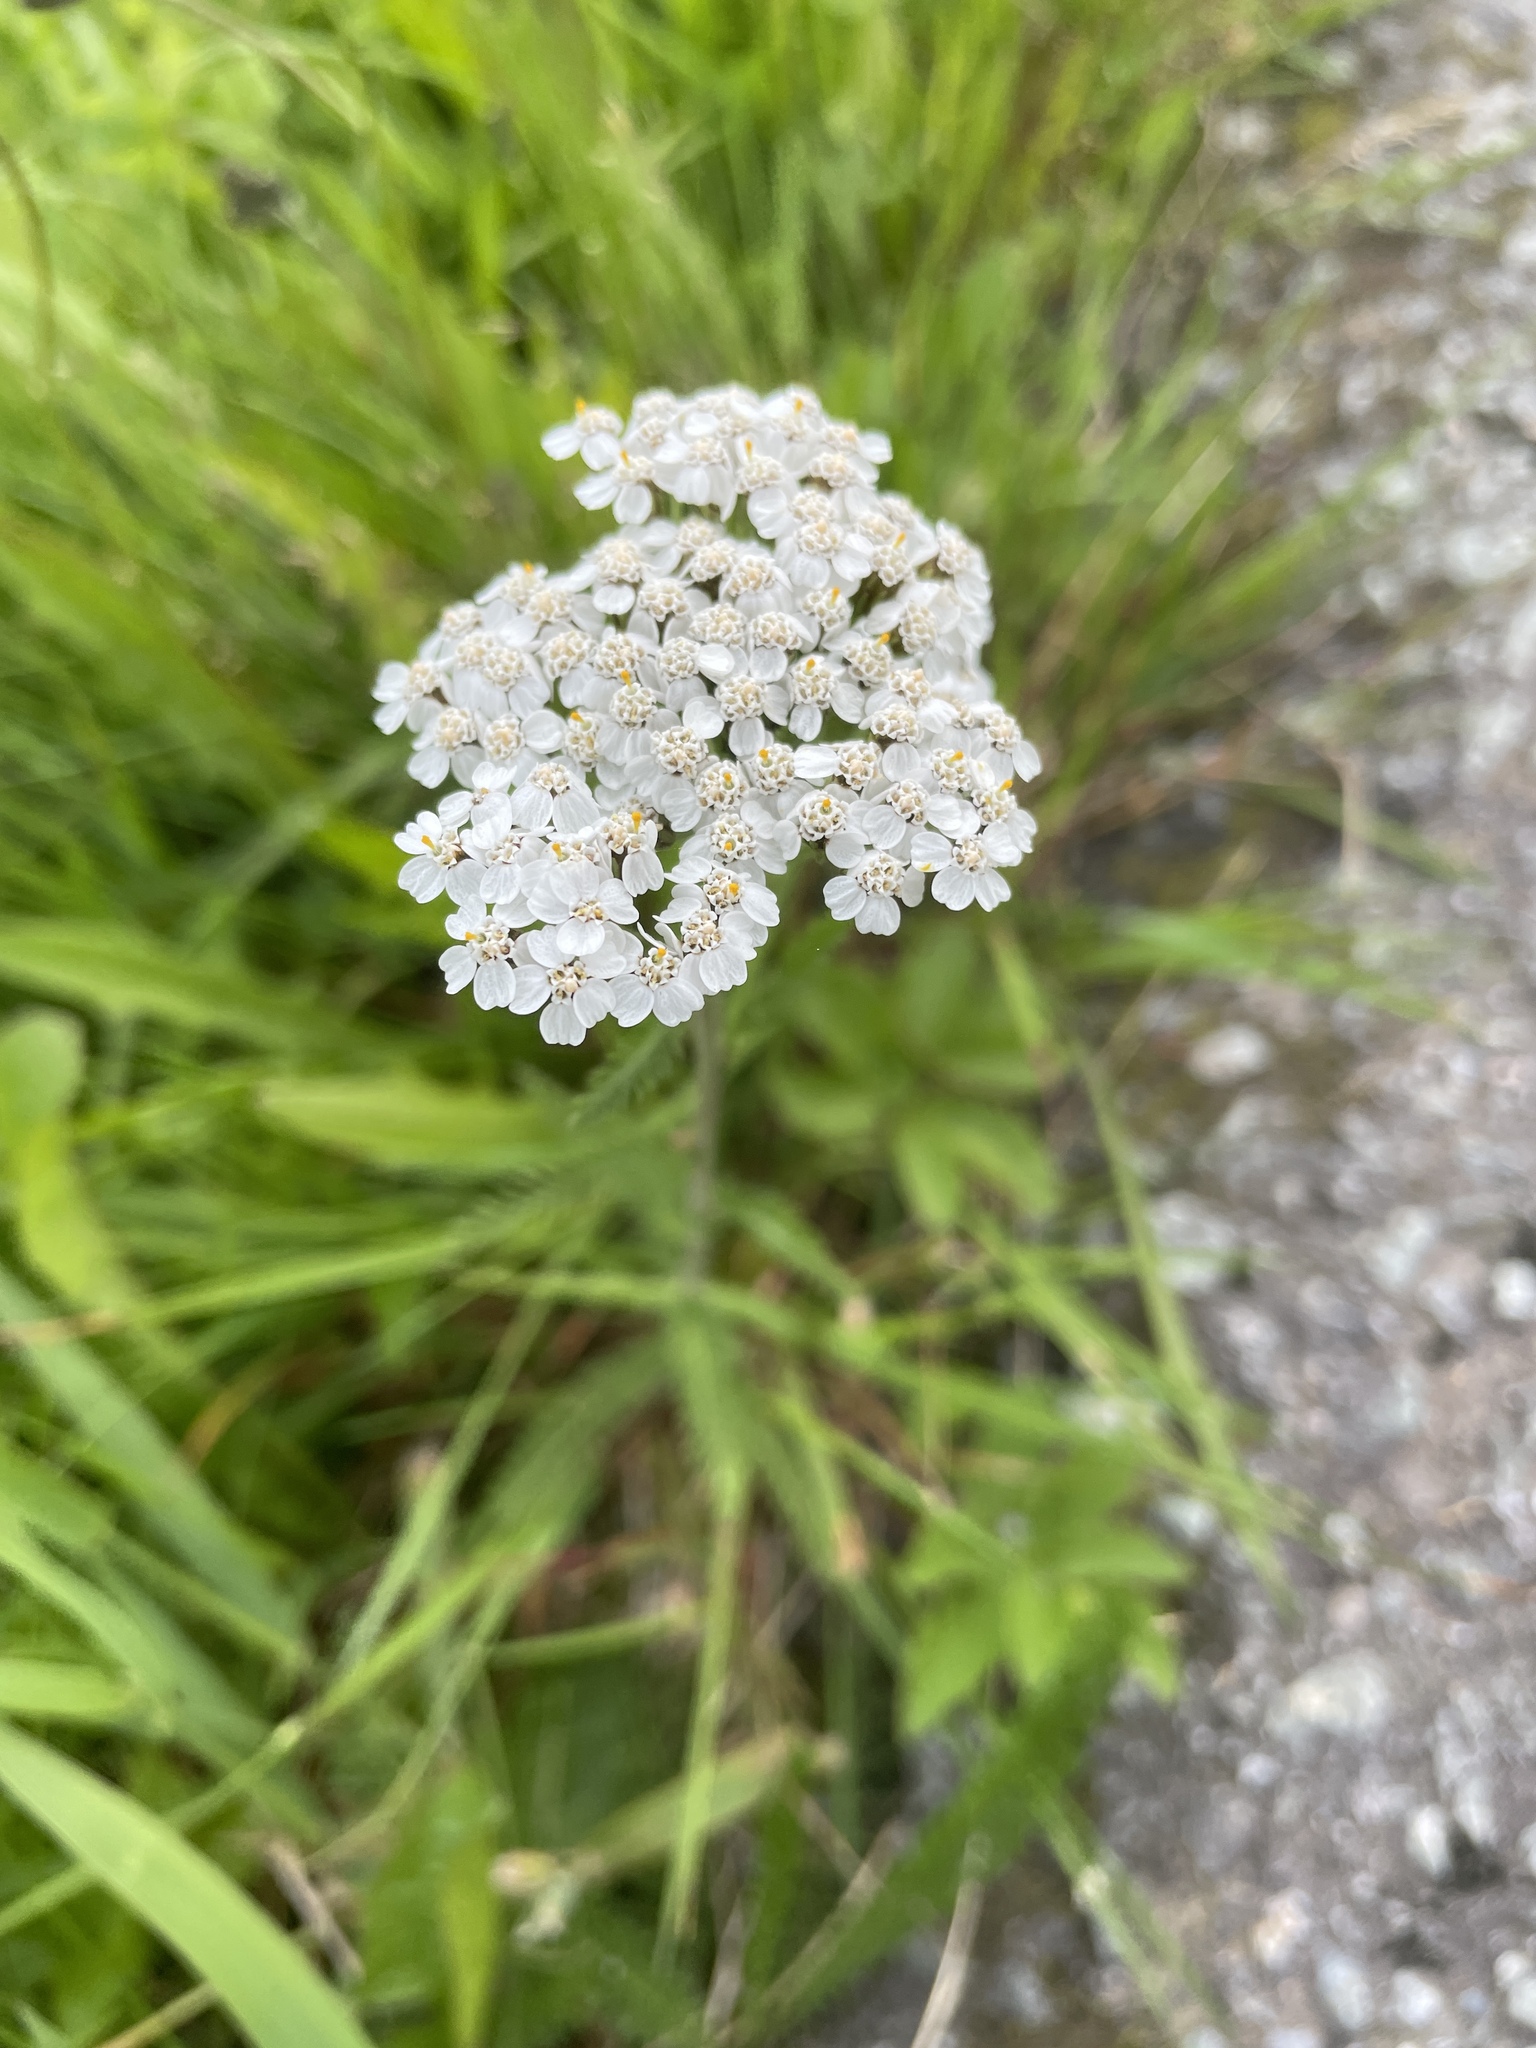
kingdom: Plantae
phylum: Tracheophyta
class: Magnoliopsida
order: Asterales
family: Asteraceae
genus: Achillea
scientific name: Achillea millefolium
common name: Yarrow
